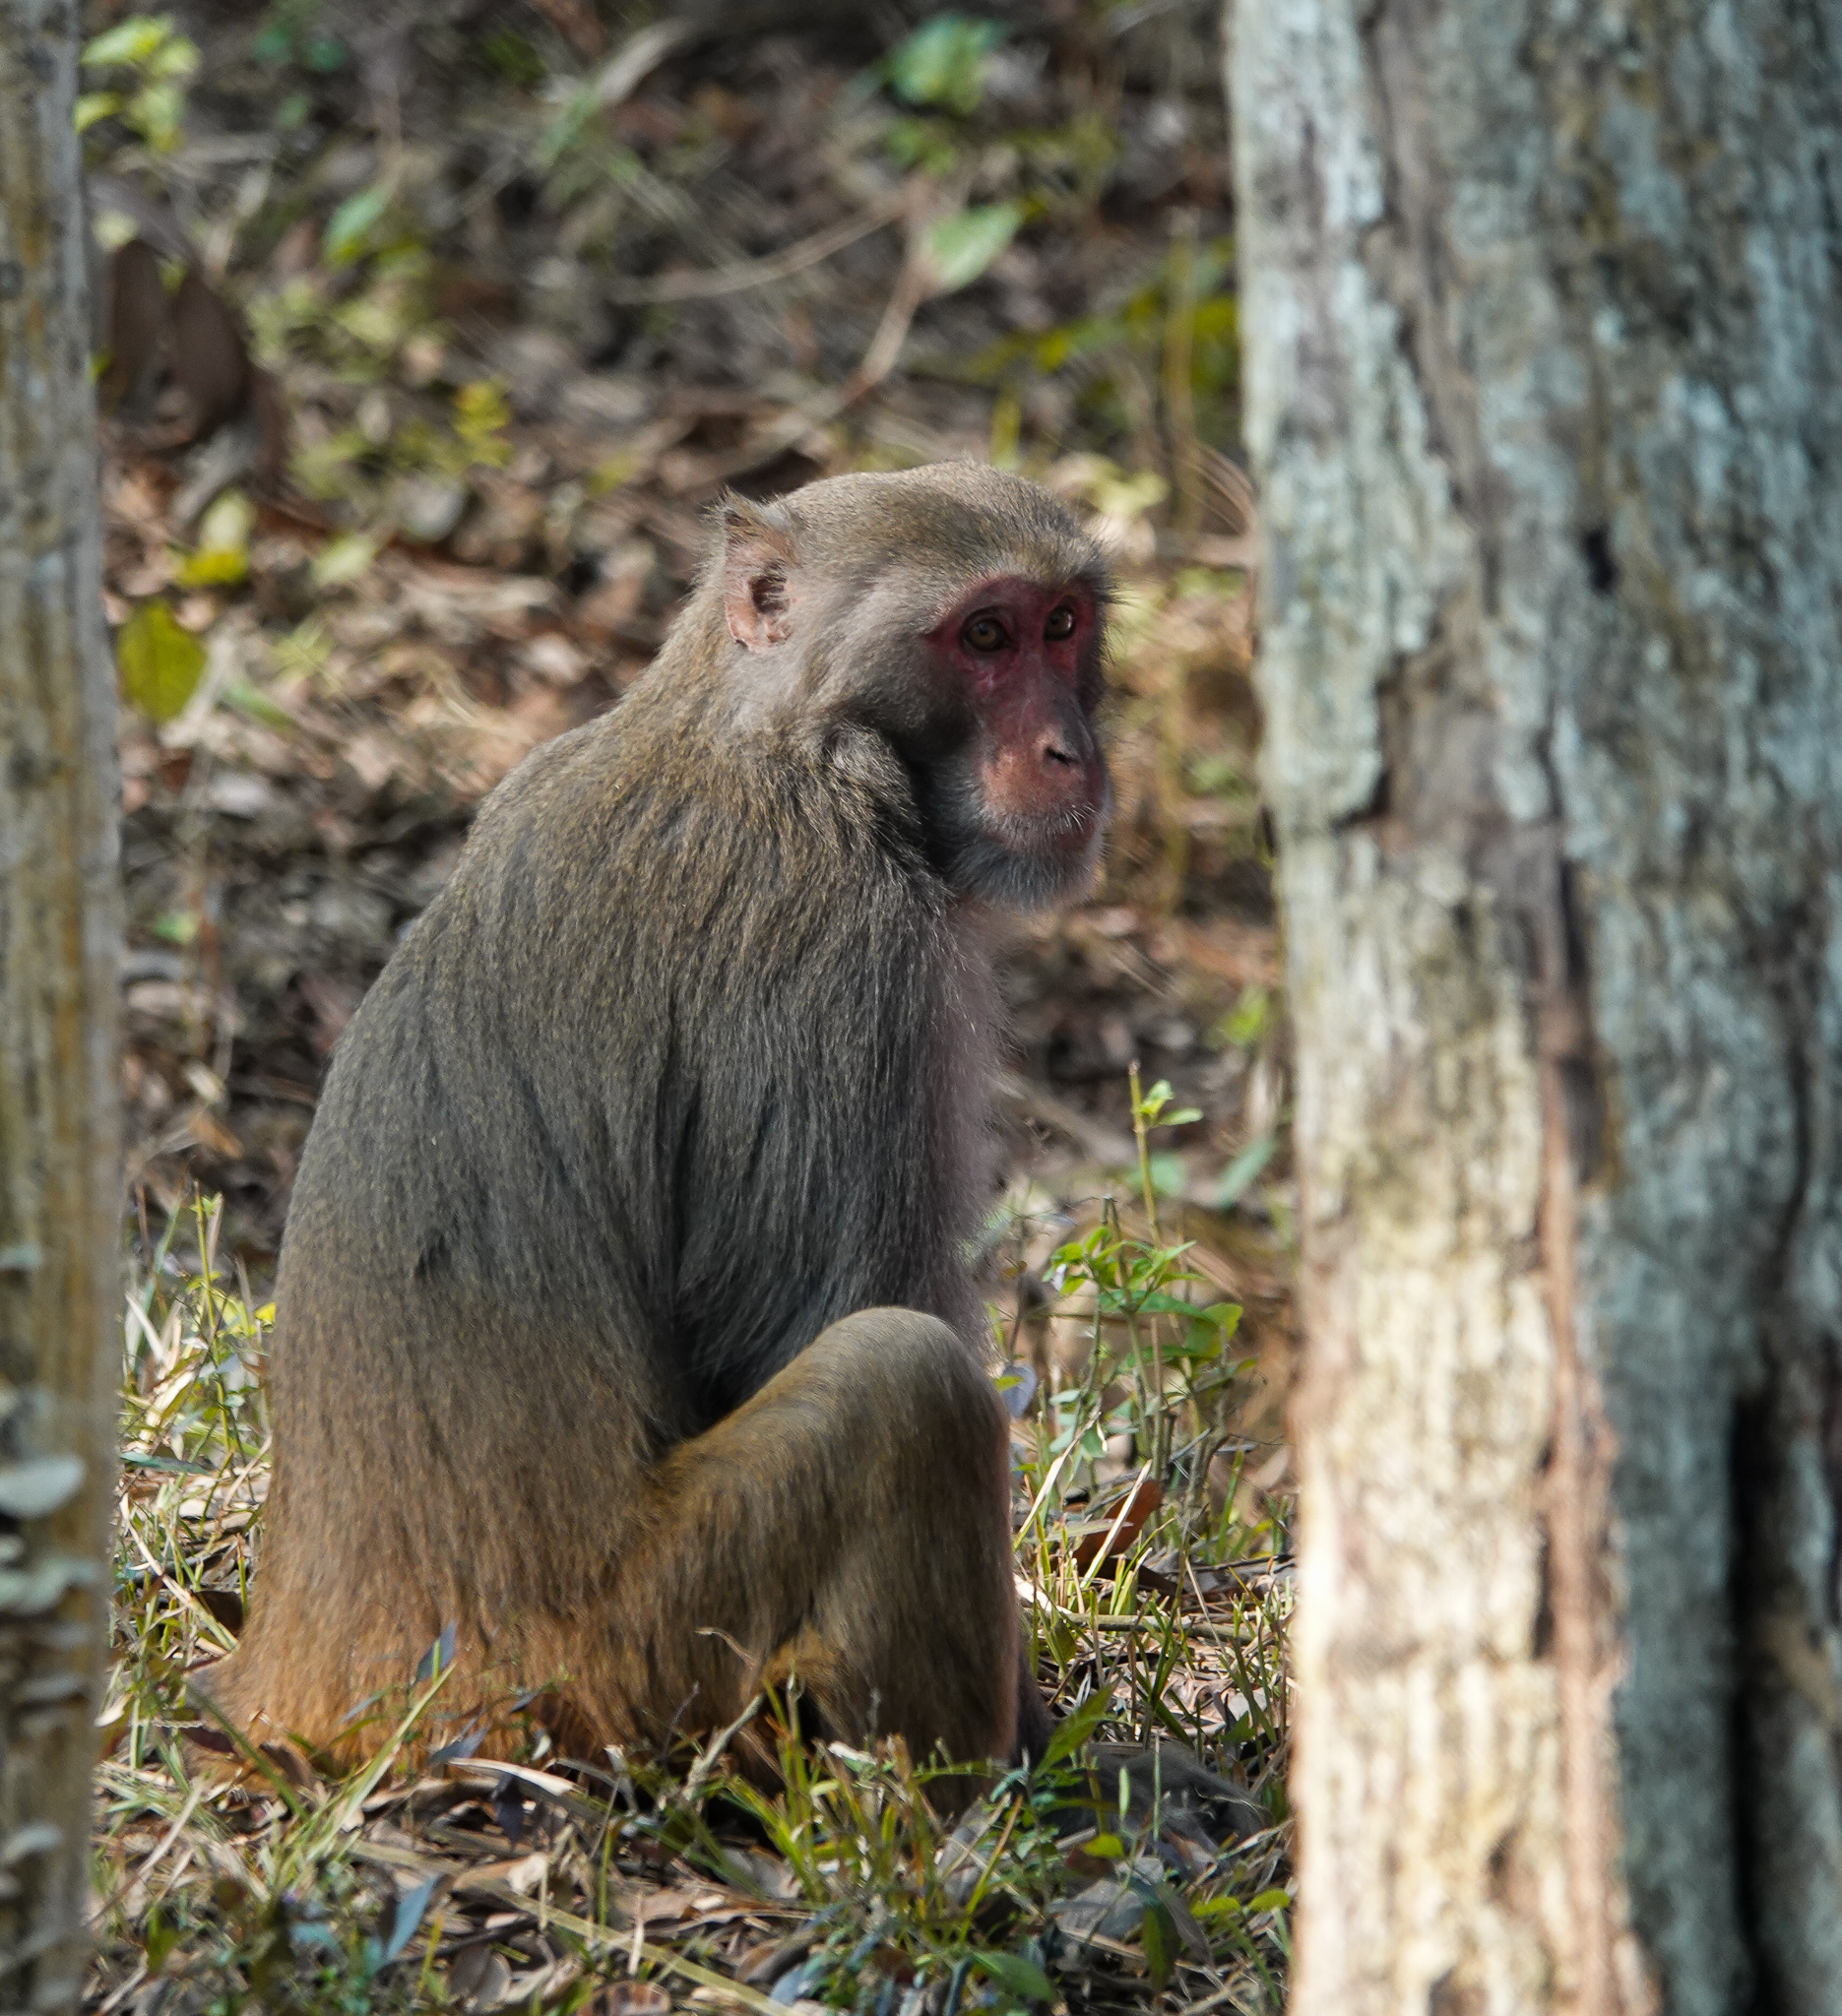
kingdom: Animalia
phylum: Chordata
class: Mammalia
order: Primates
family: Cercopithecidae
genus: Macaca
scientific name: Macaca mulatta
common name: Rhesus monkey
